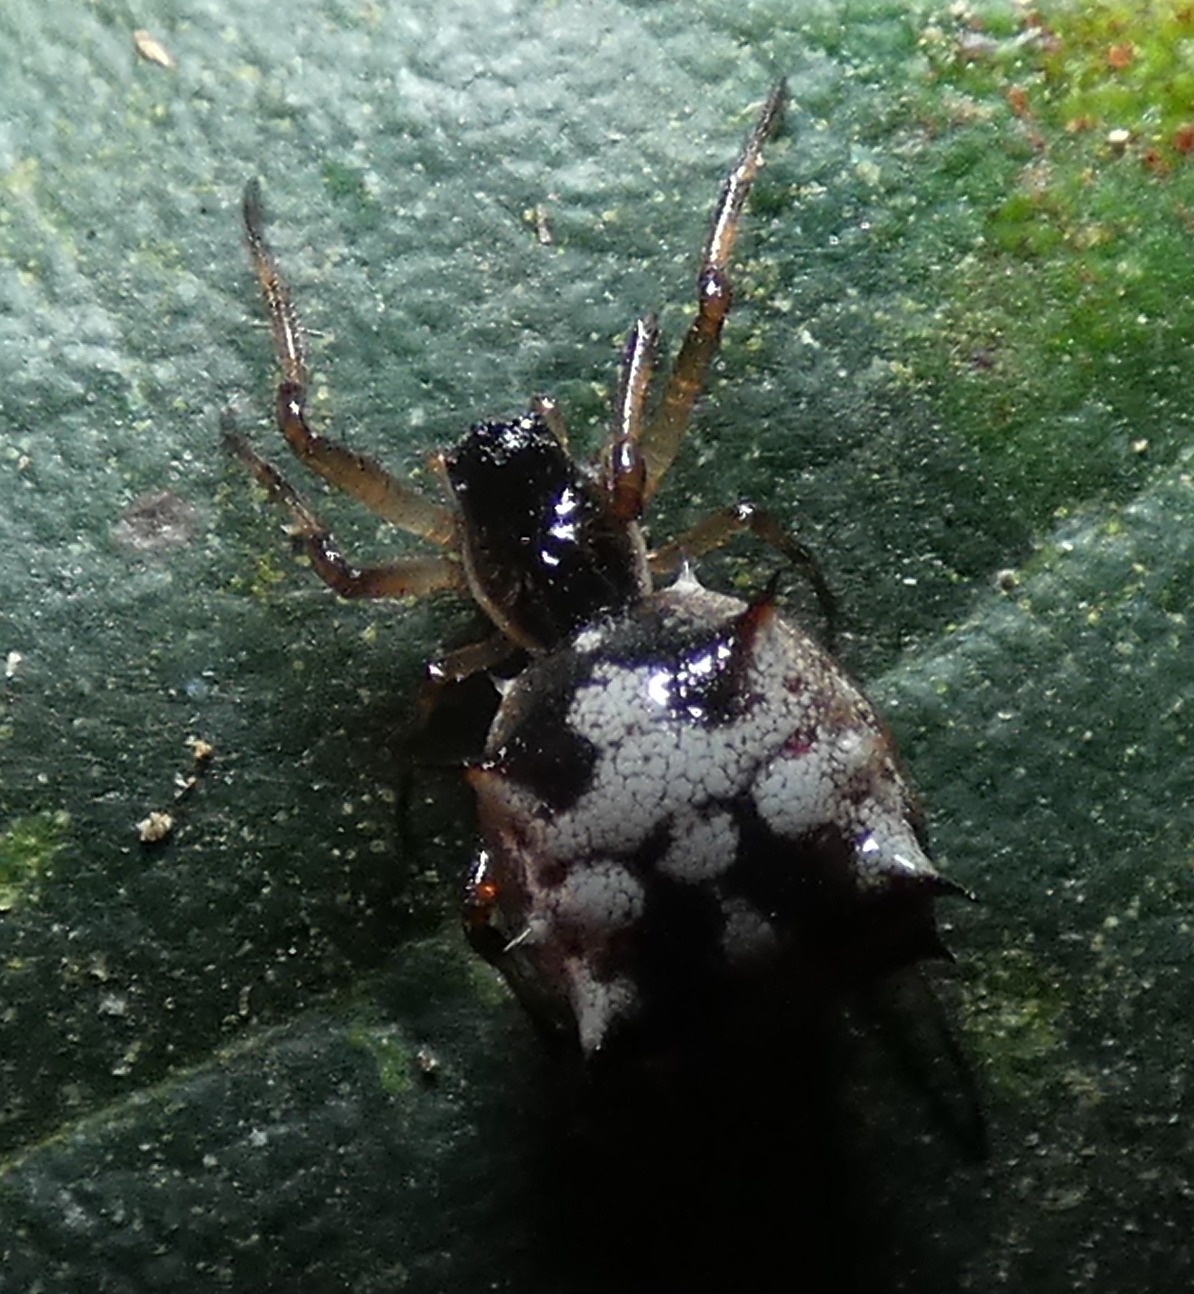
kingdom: Animalia
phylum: Arthropoda
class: Arachnida
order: Araneae
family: Araneidae
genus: Micrathena
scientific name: Micrathena picta
